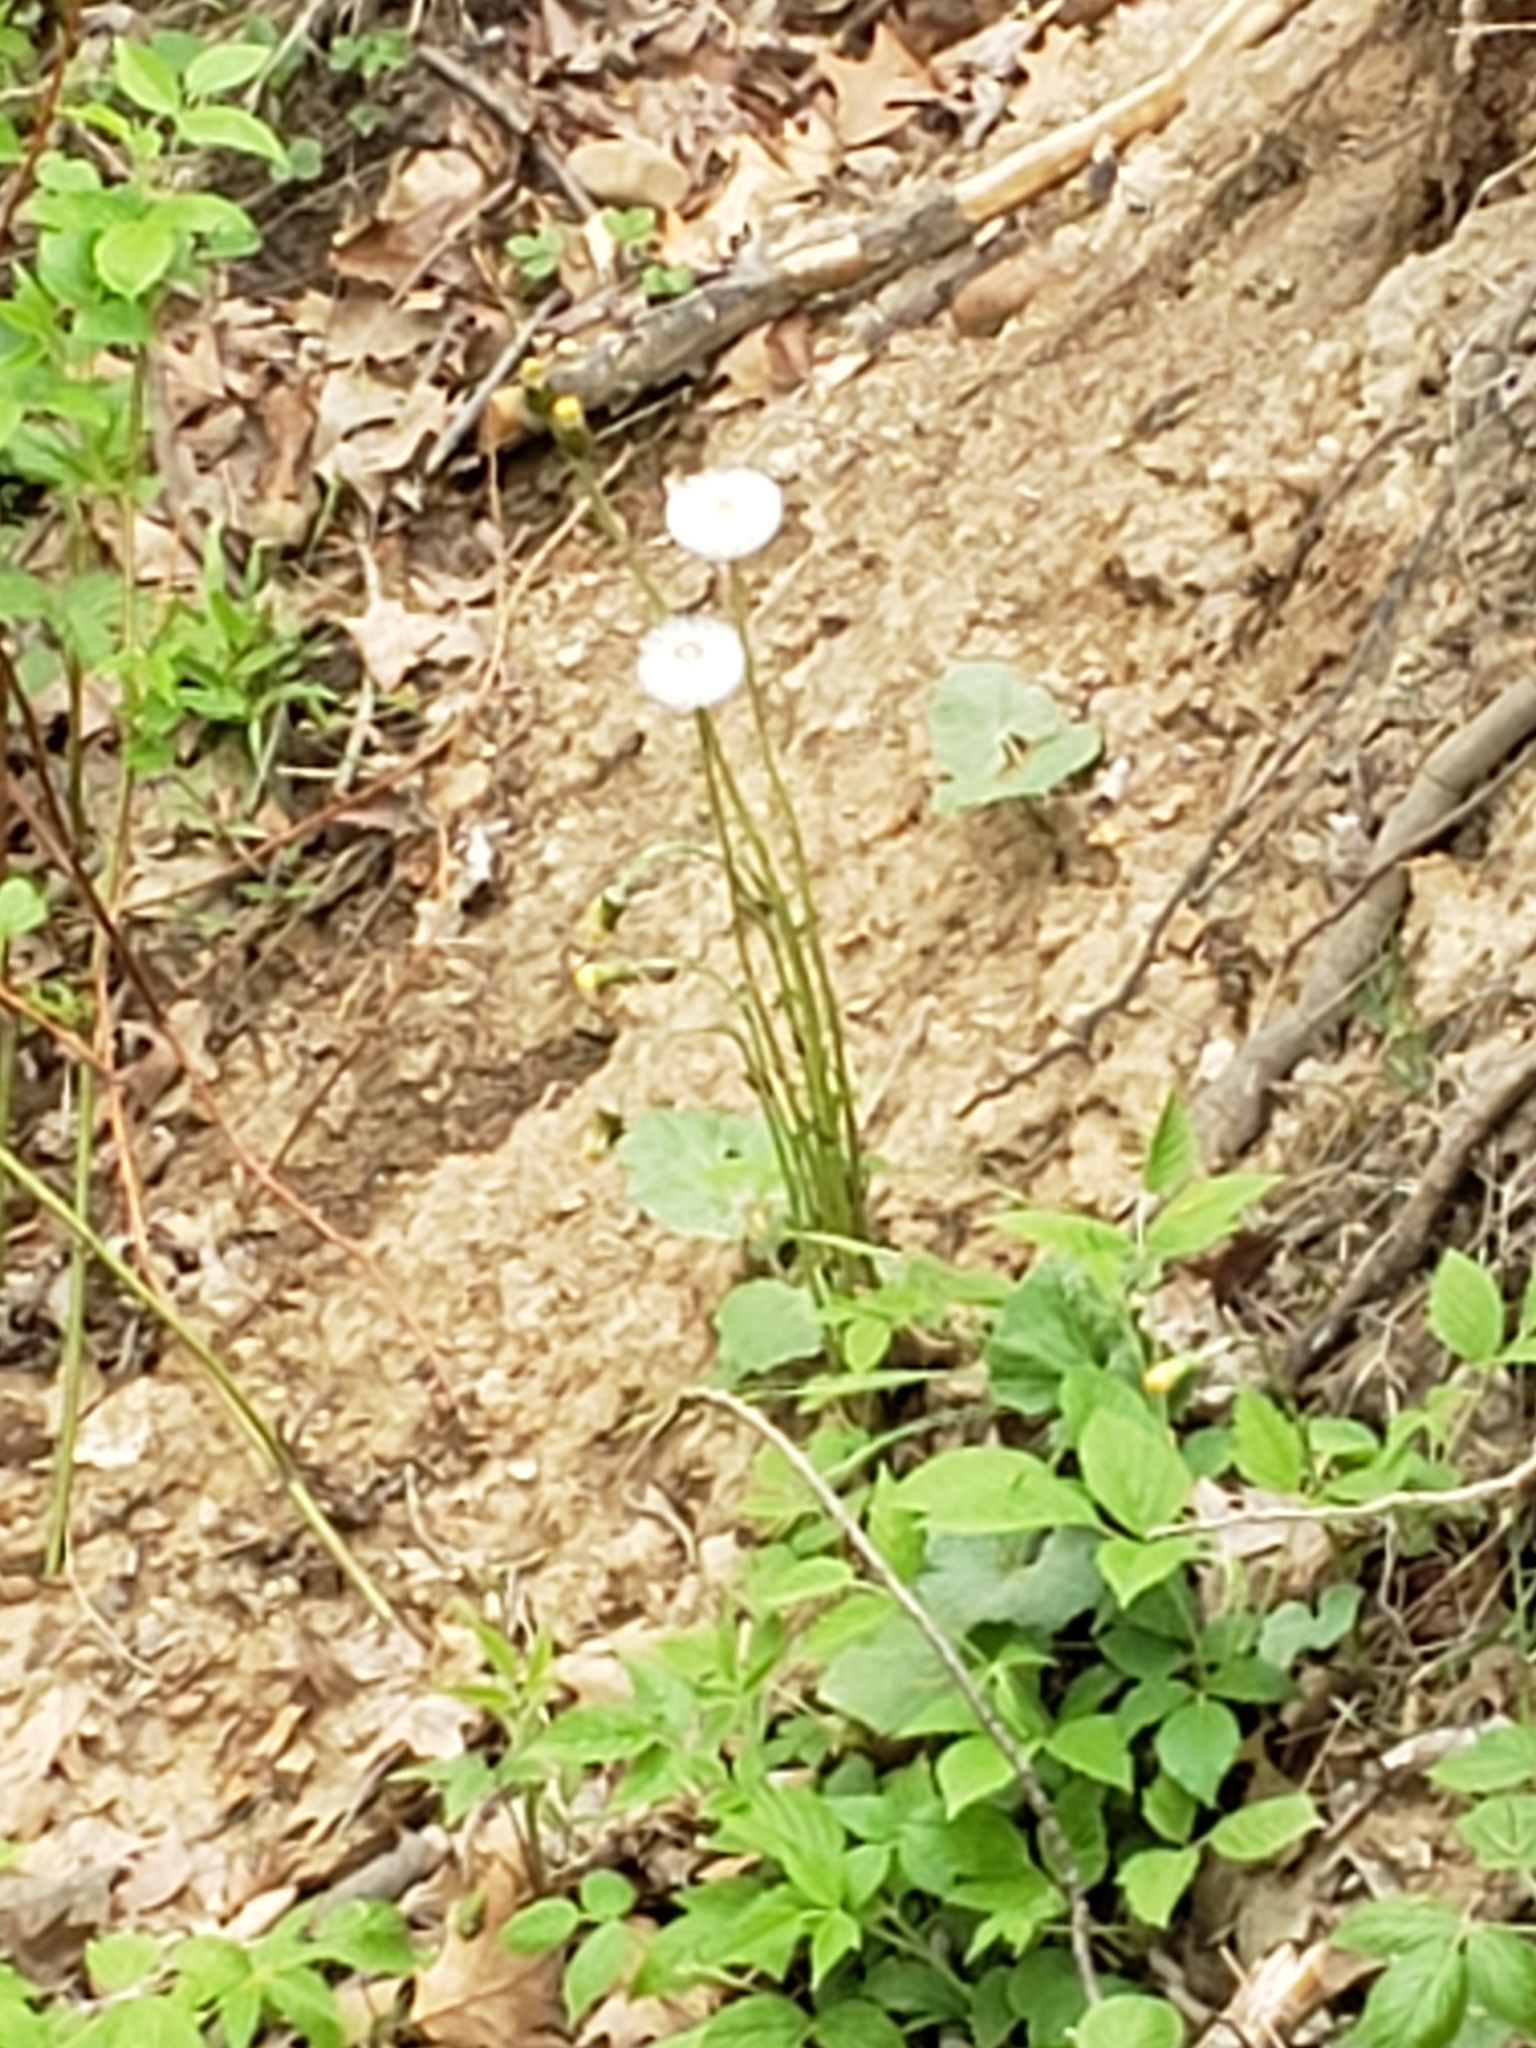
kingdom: Plantae
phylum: Tracheophyta
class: Magnoliopsida
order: Asterales
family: Asteraceae
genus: Tussilago
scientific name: Tussilago farfara
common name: Coltsfoot
